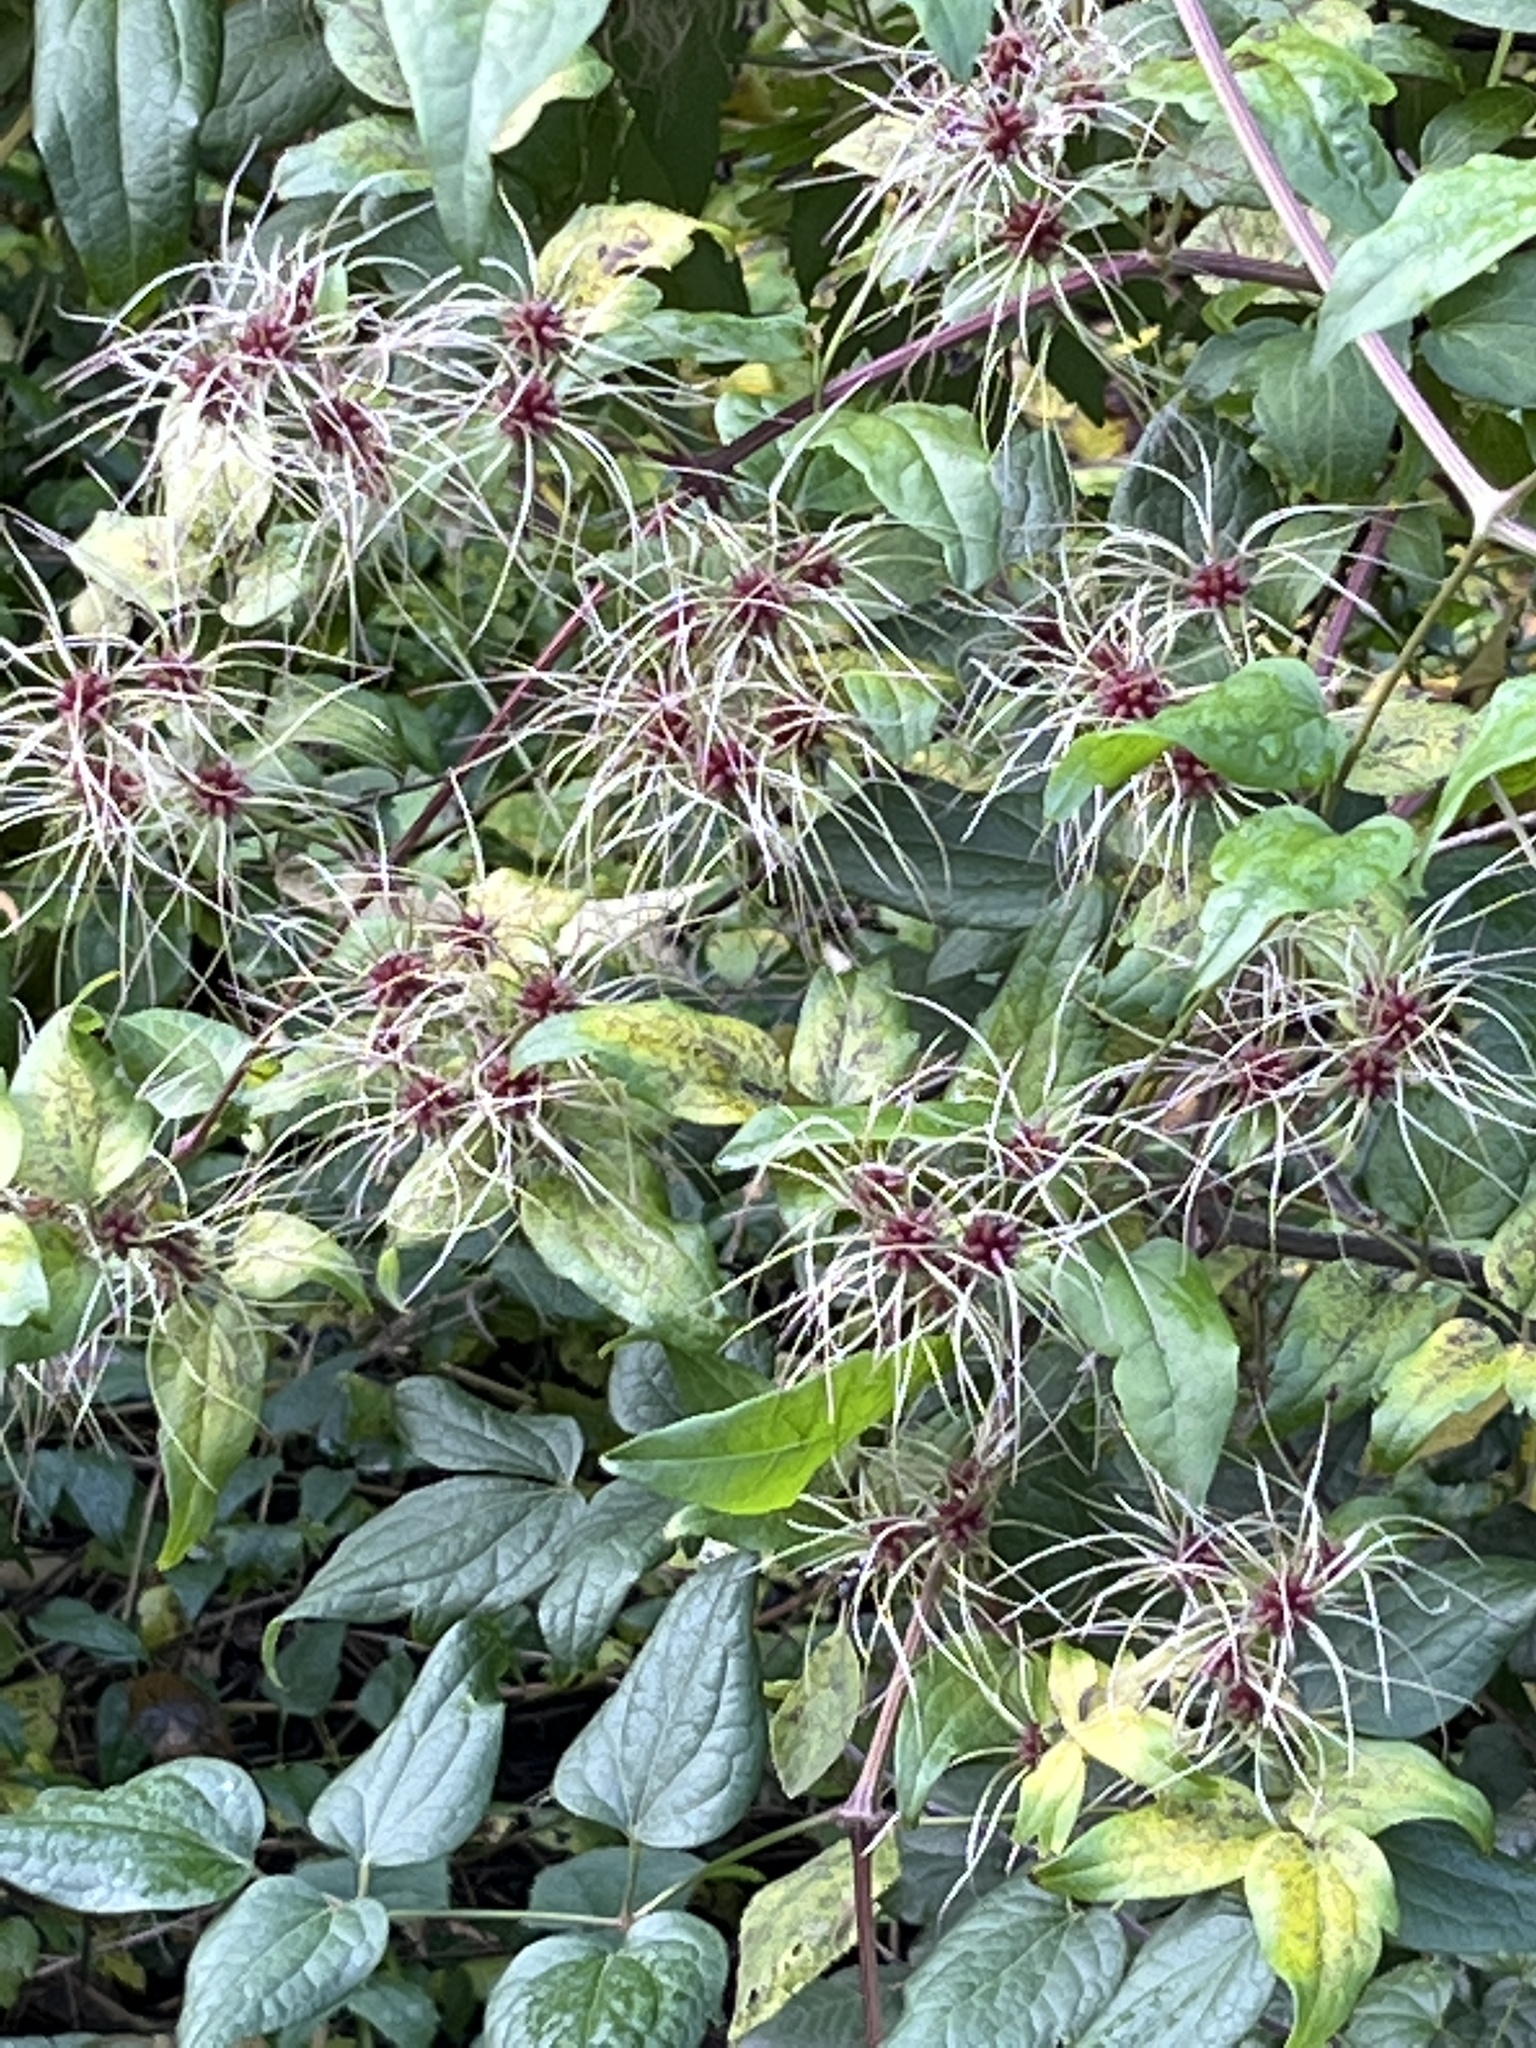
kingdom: Plantae
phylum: Tracheophyta
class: Magnoliopsida
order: Ranunculales
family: Ranunculaceae
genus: Clematis
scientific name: Clematis vitalba
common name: Evergreen clematis
